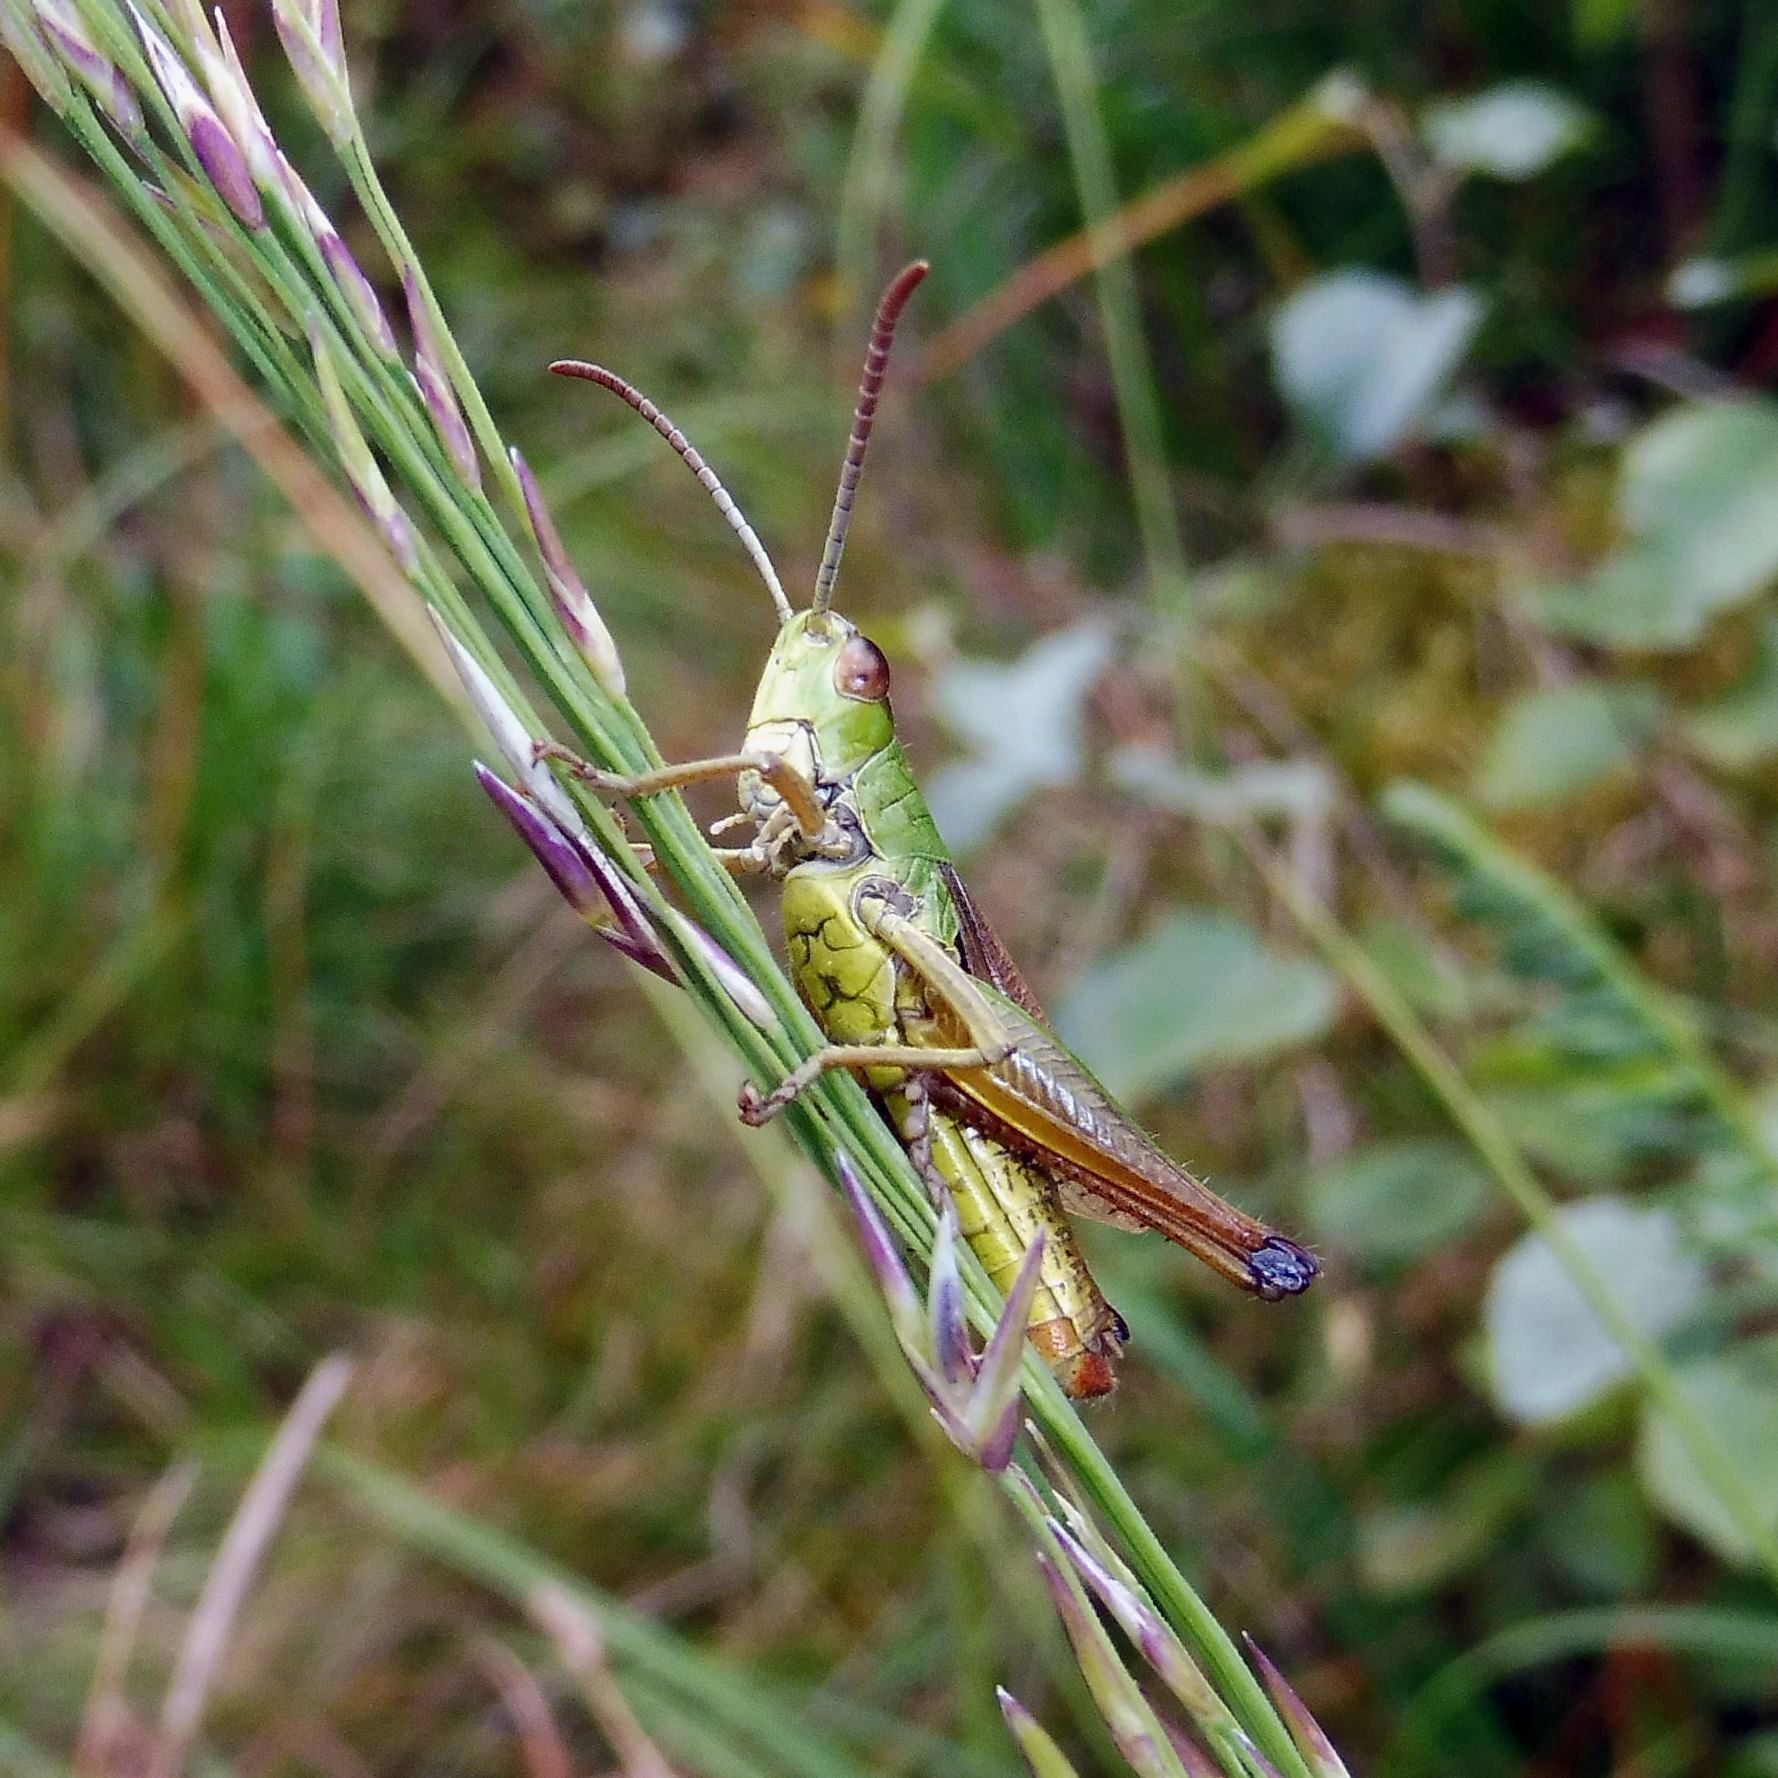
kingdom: Animalia
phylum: Arthropoda
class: Insecta
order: Orthoptera
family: Acrididae
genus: Pseudochorthippus
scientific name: Pseudochorthippus parallelus
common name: Meadow grasshopper
